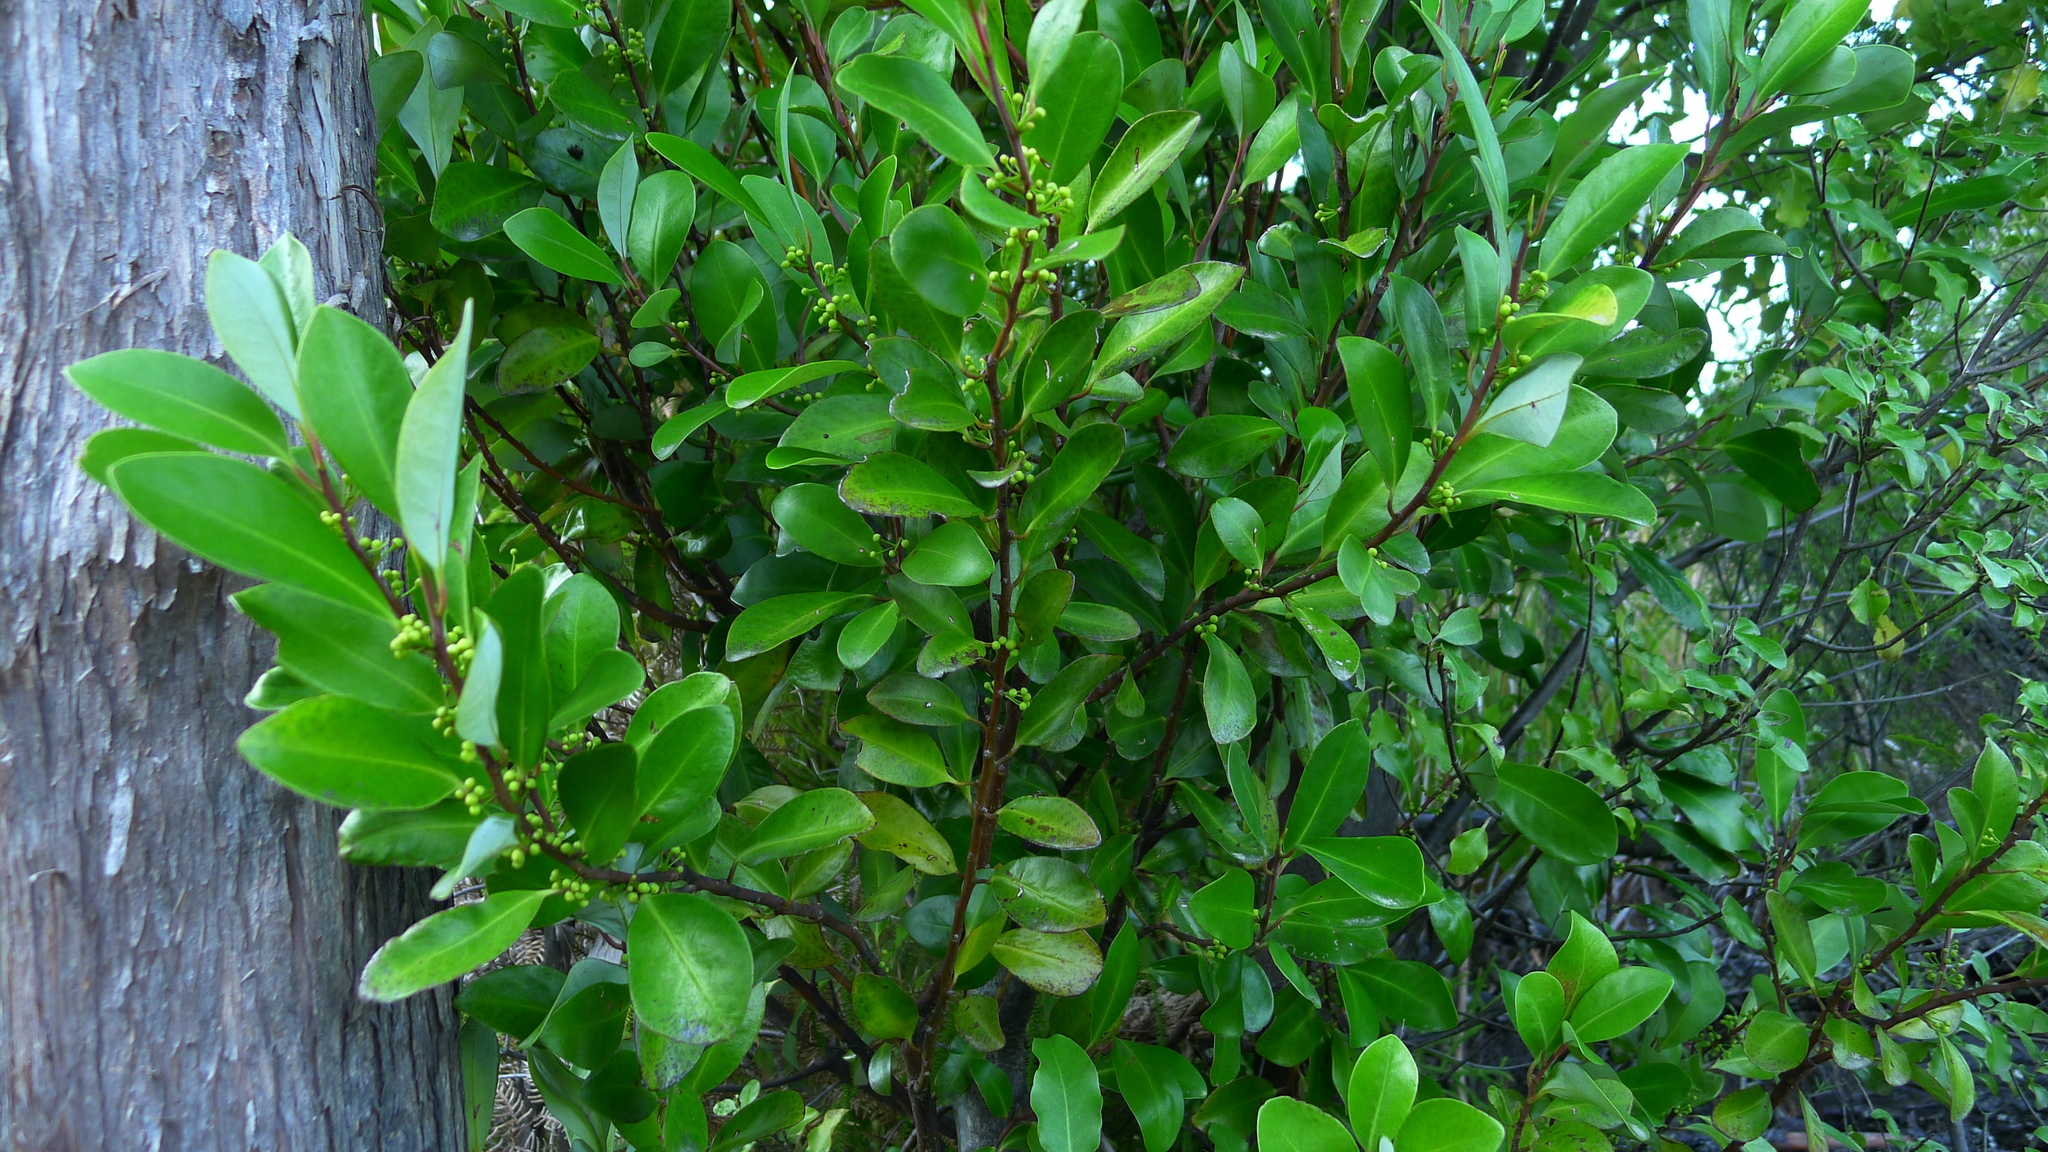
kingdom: Plantae
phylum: Tracheophyta
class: Magnoliopsida
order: Canellales
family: Winteraceae
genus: Pseudowintera
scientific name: Pseudowintera axillaris
